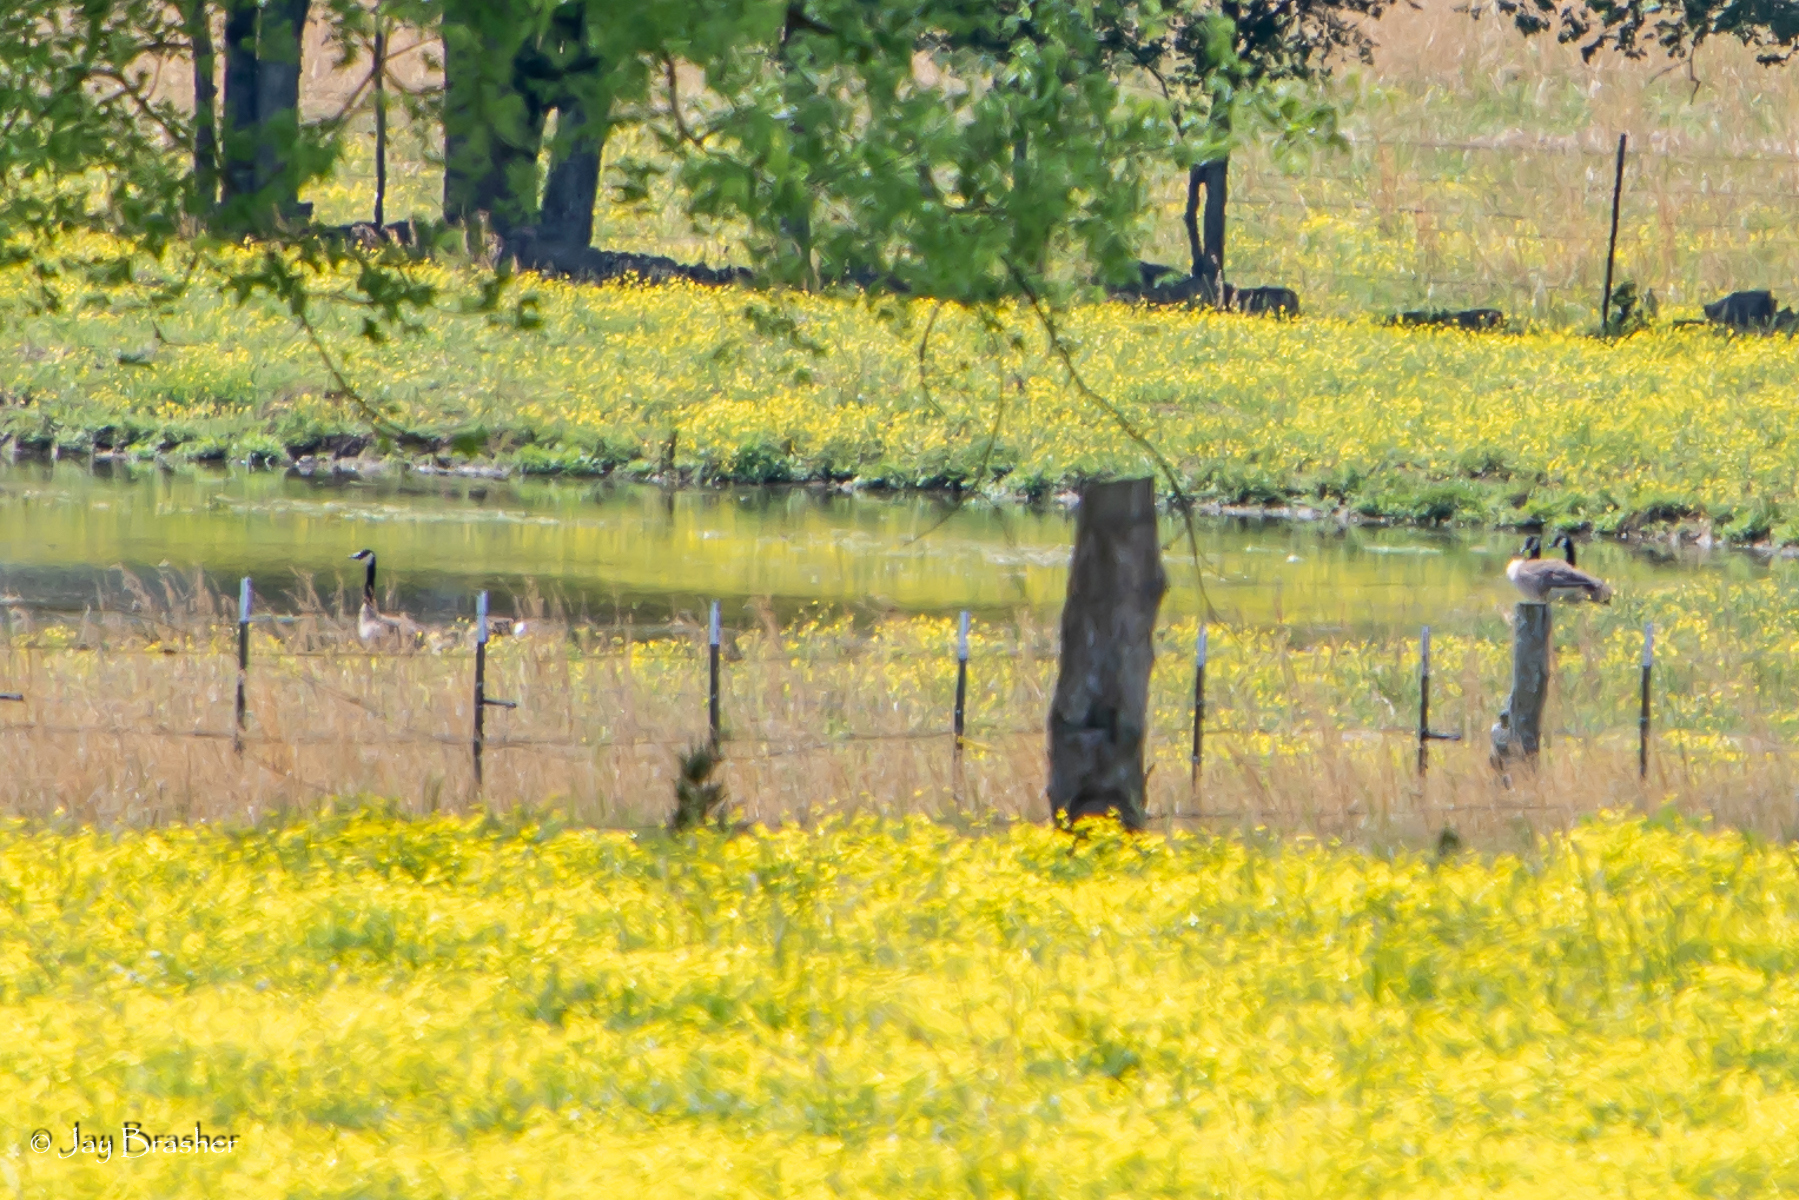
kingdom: Animalia
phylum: Chordata
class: Aves
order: Anseriformes
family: Anatidae
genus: Branta
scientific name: Branta canadensis
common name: Canada goose
